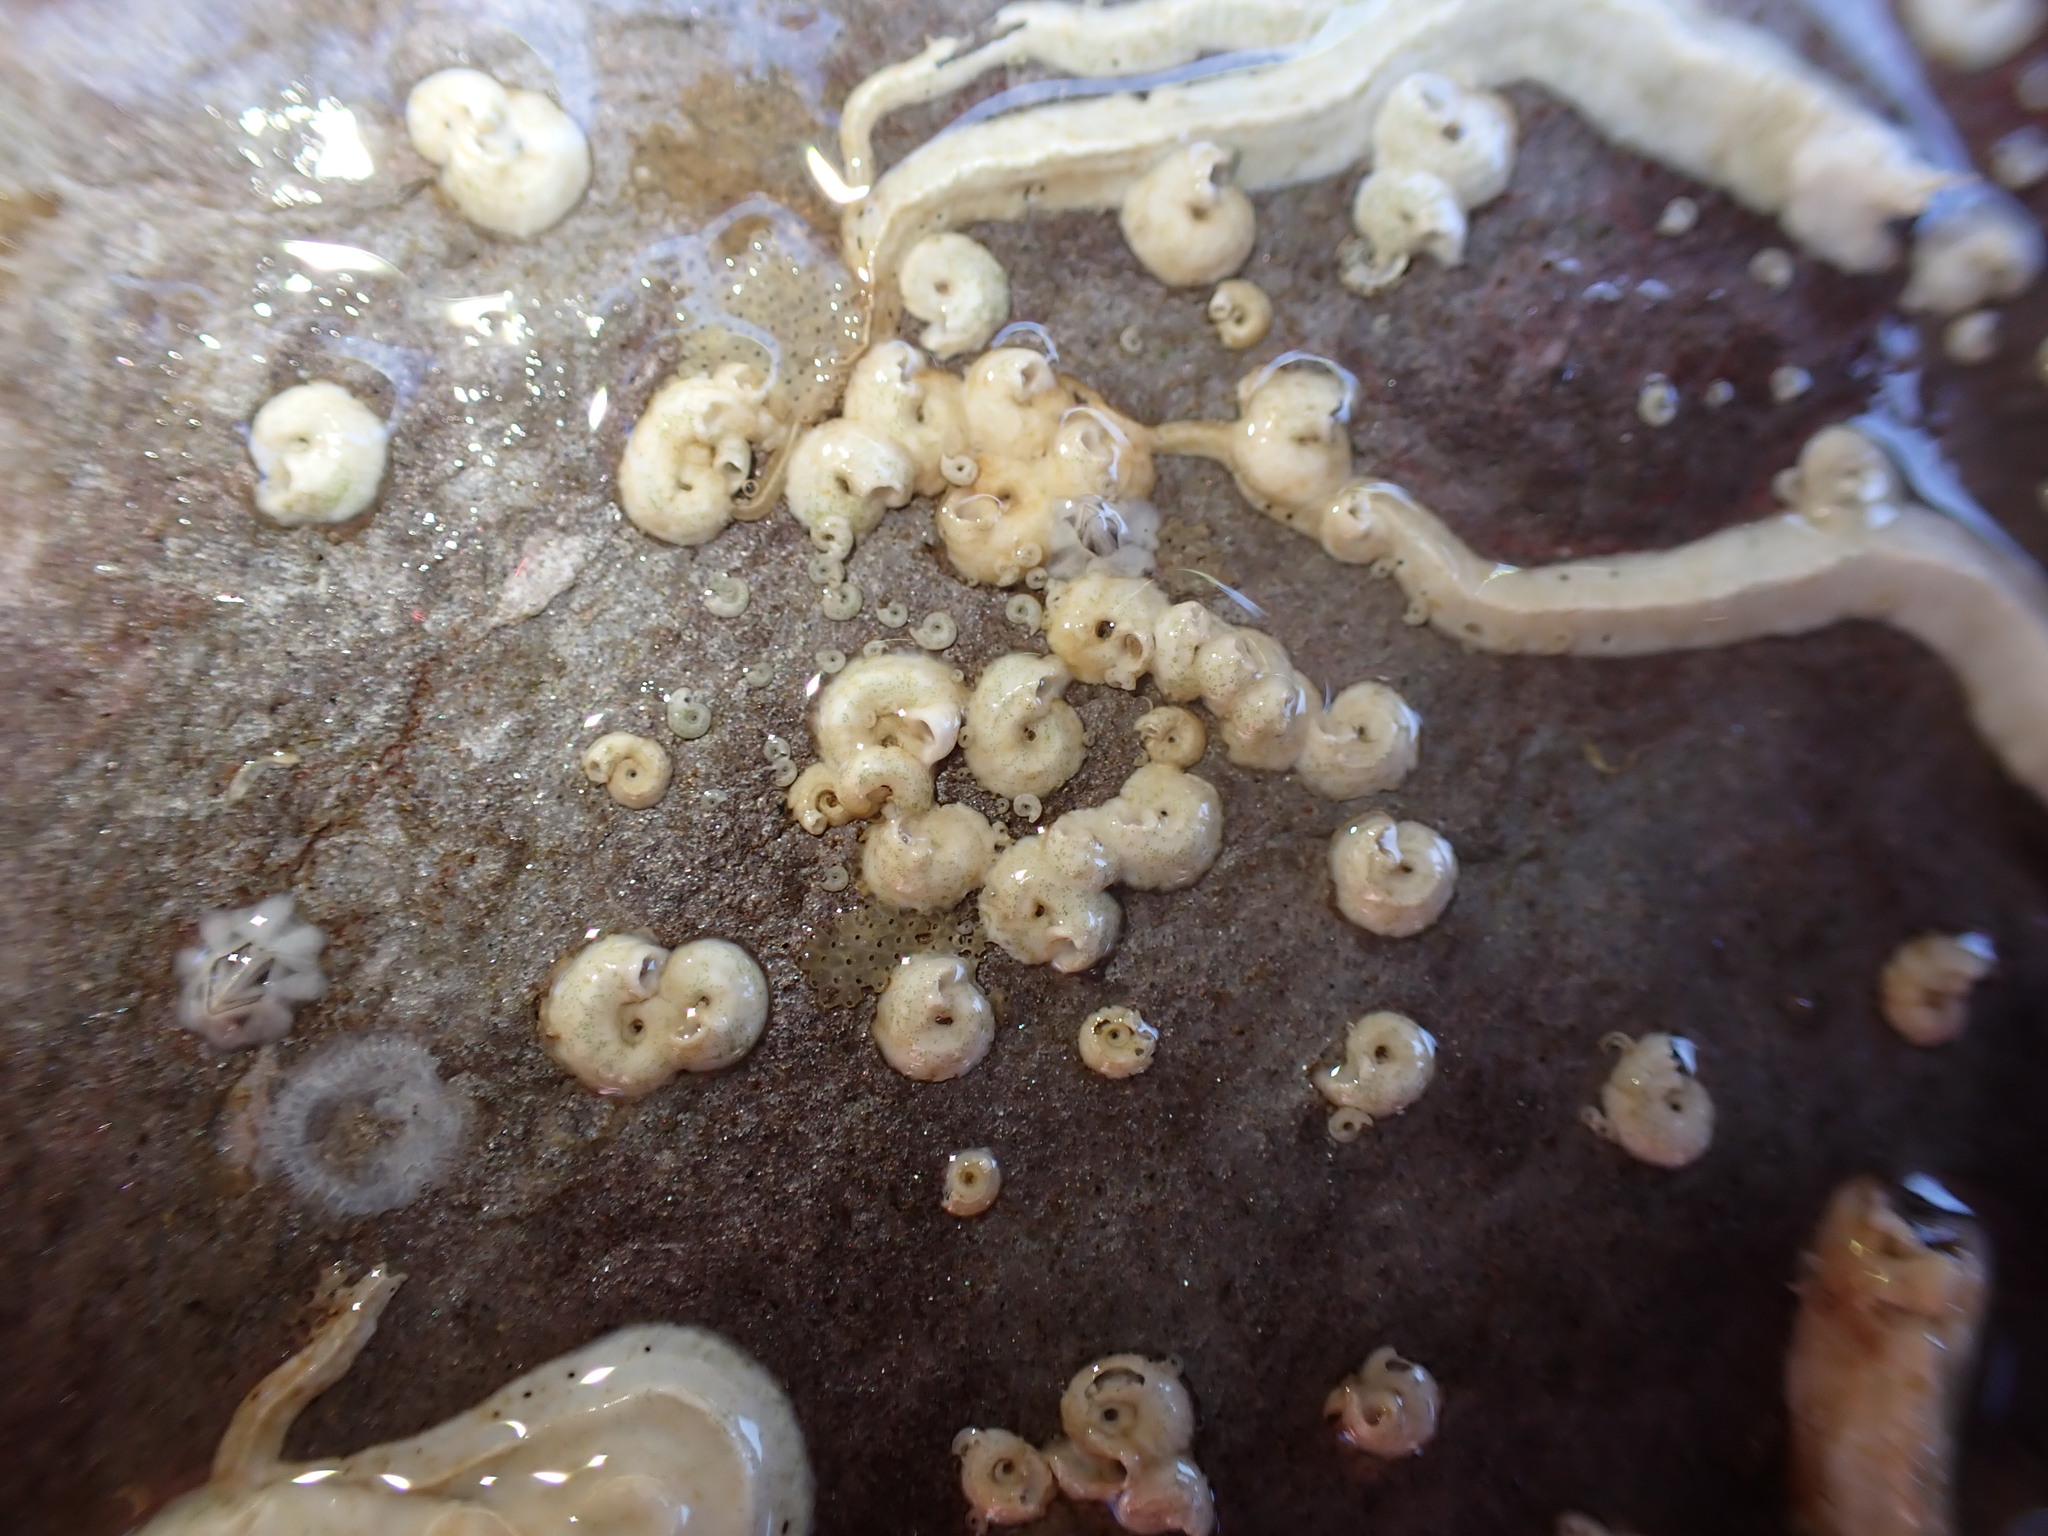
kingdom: Animalia
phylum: Annelida
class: Polychaeta
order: Sabellida
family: Serpulidae
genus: Spirorbis
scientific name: Spirorbis spirorbis
